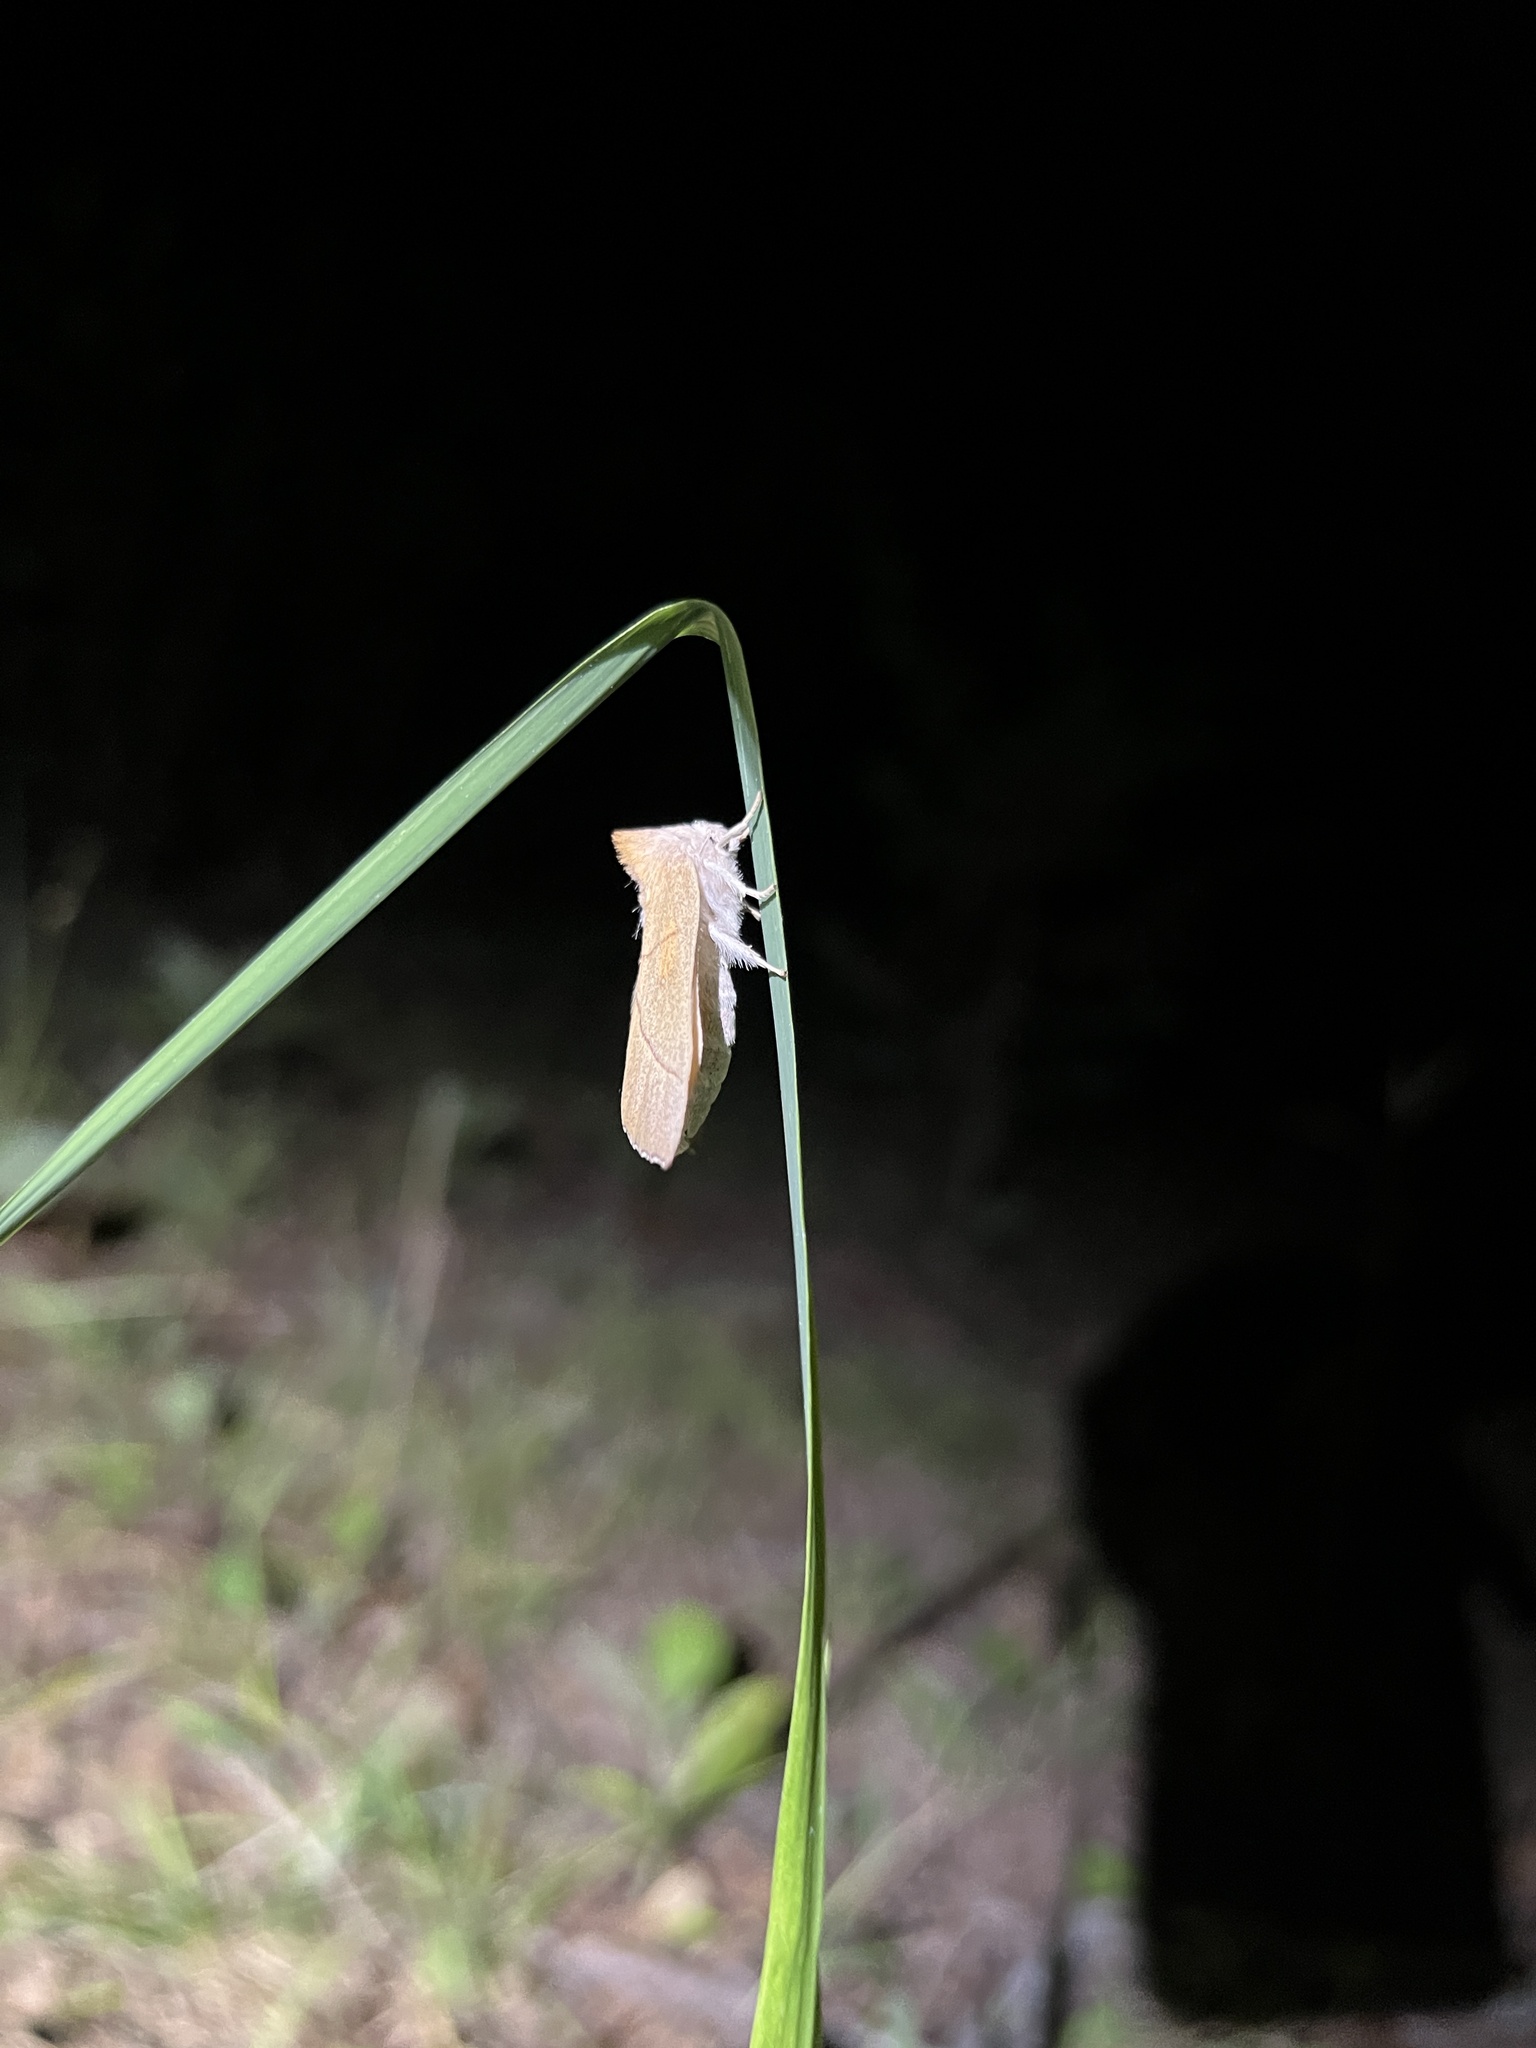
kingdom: Animalia
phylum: Arthropoda
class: Insecta
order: Lepidoptera
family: Notodontidae
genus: Nadata
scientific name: Nadata gibbosa
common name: White-dotted prominent
